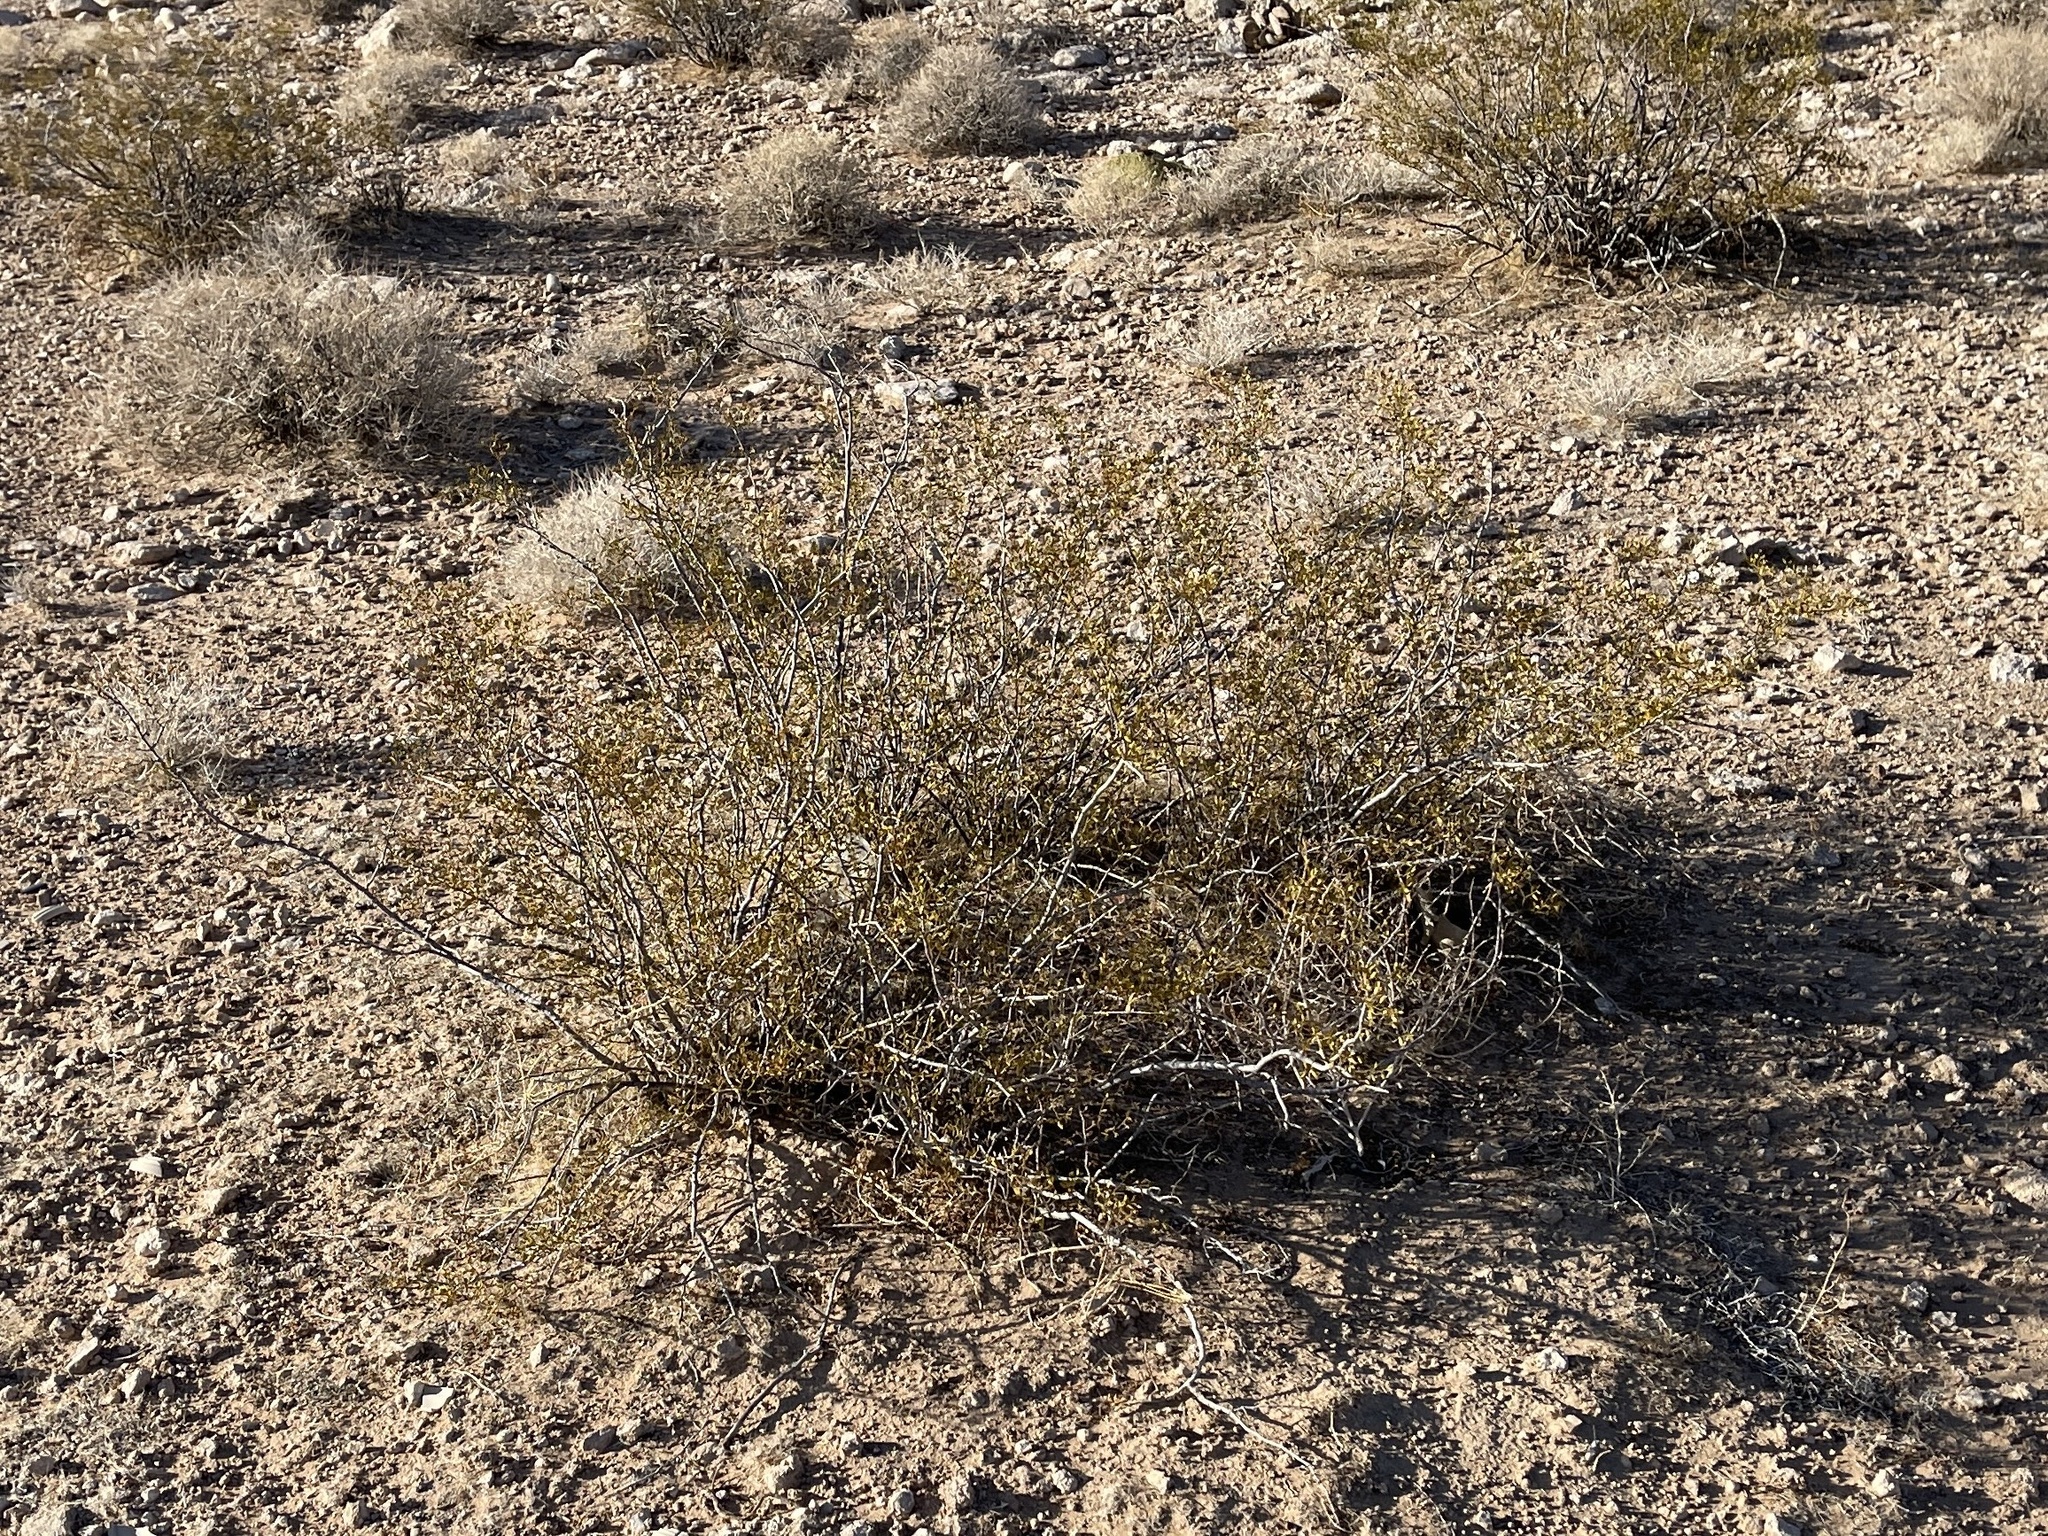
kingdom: Plantae
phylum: Tracheophyta
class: Magnoliopsida
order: Zygophyllales
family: Zygophyllaceae
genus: Larrea
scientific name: Larrea tridentata
